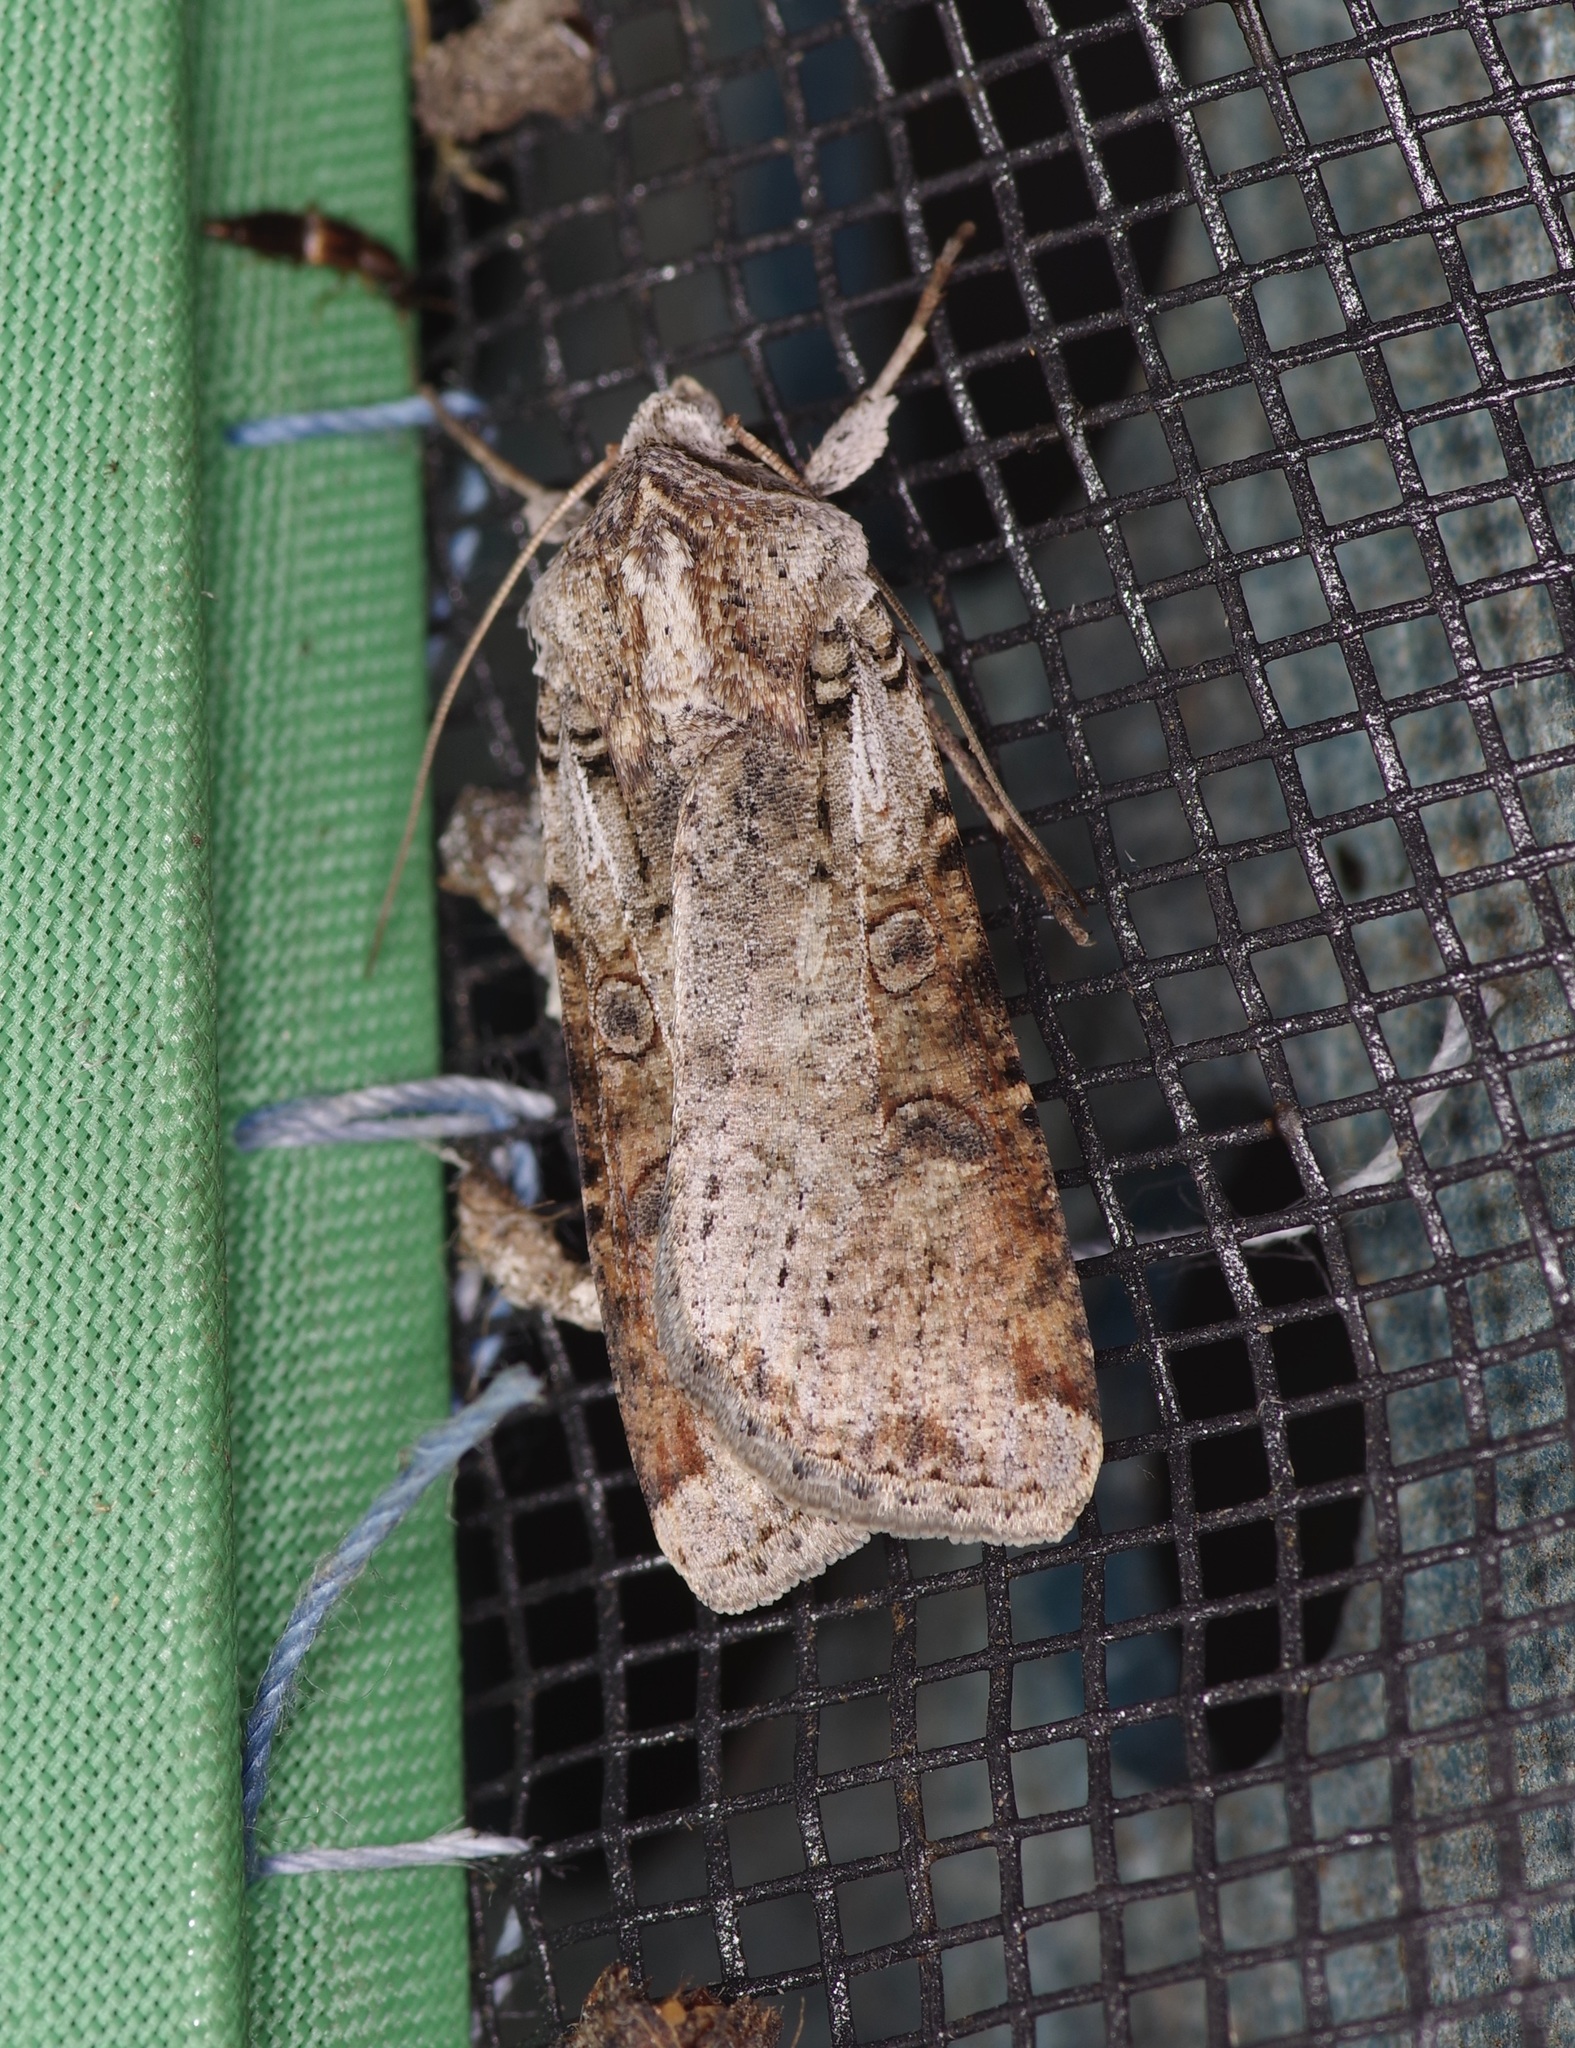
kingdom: Animalia
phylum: Arthropoda
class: Insecta
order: Lepidoptera
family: Noctuidae
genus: Hemieuxoa
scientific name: Hemieuxoa rudens
